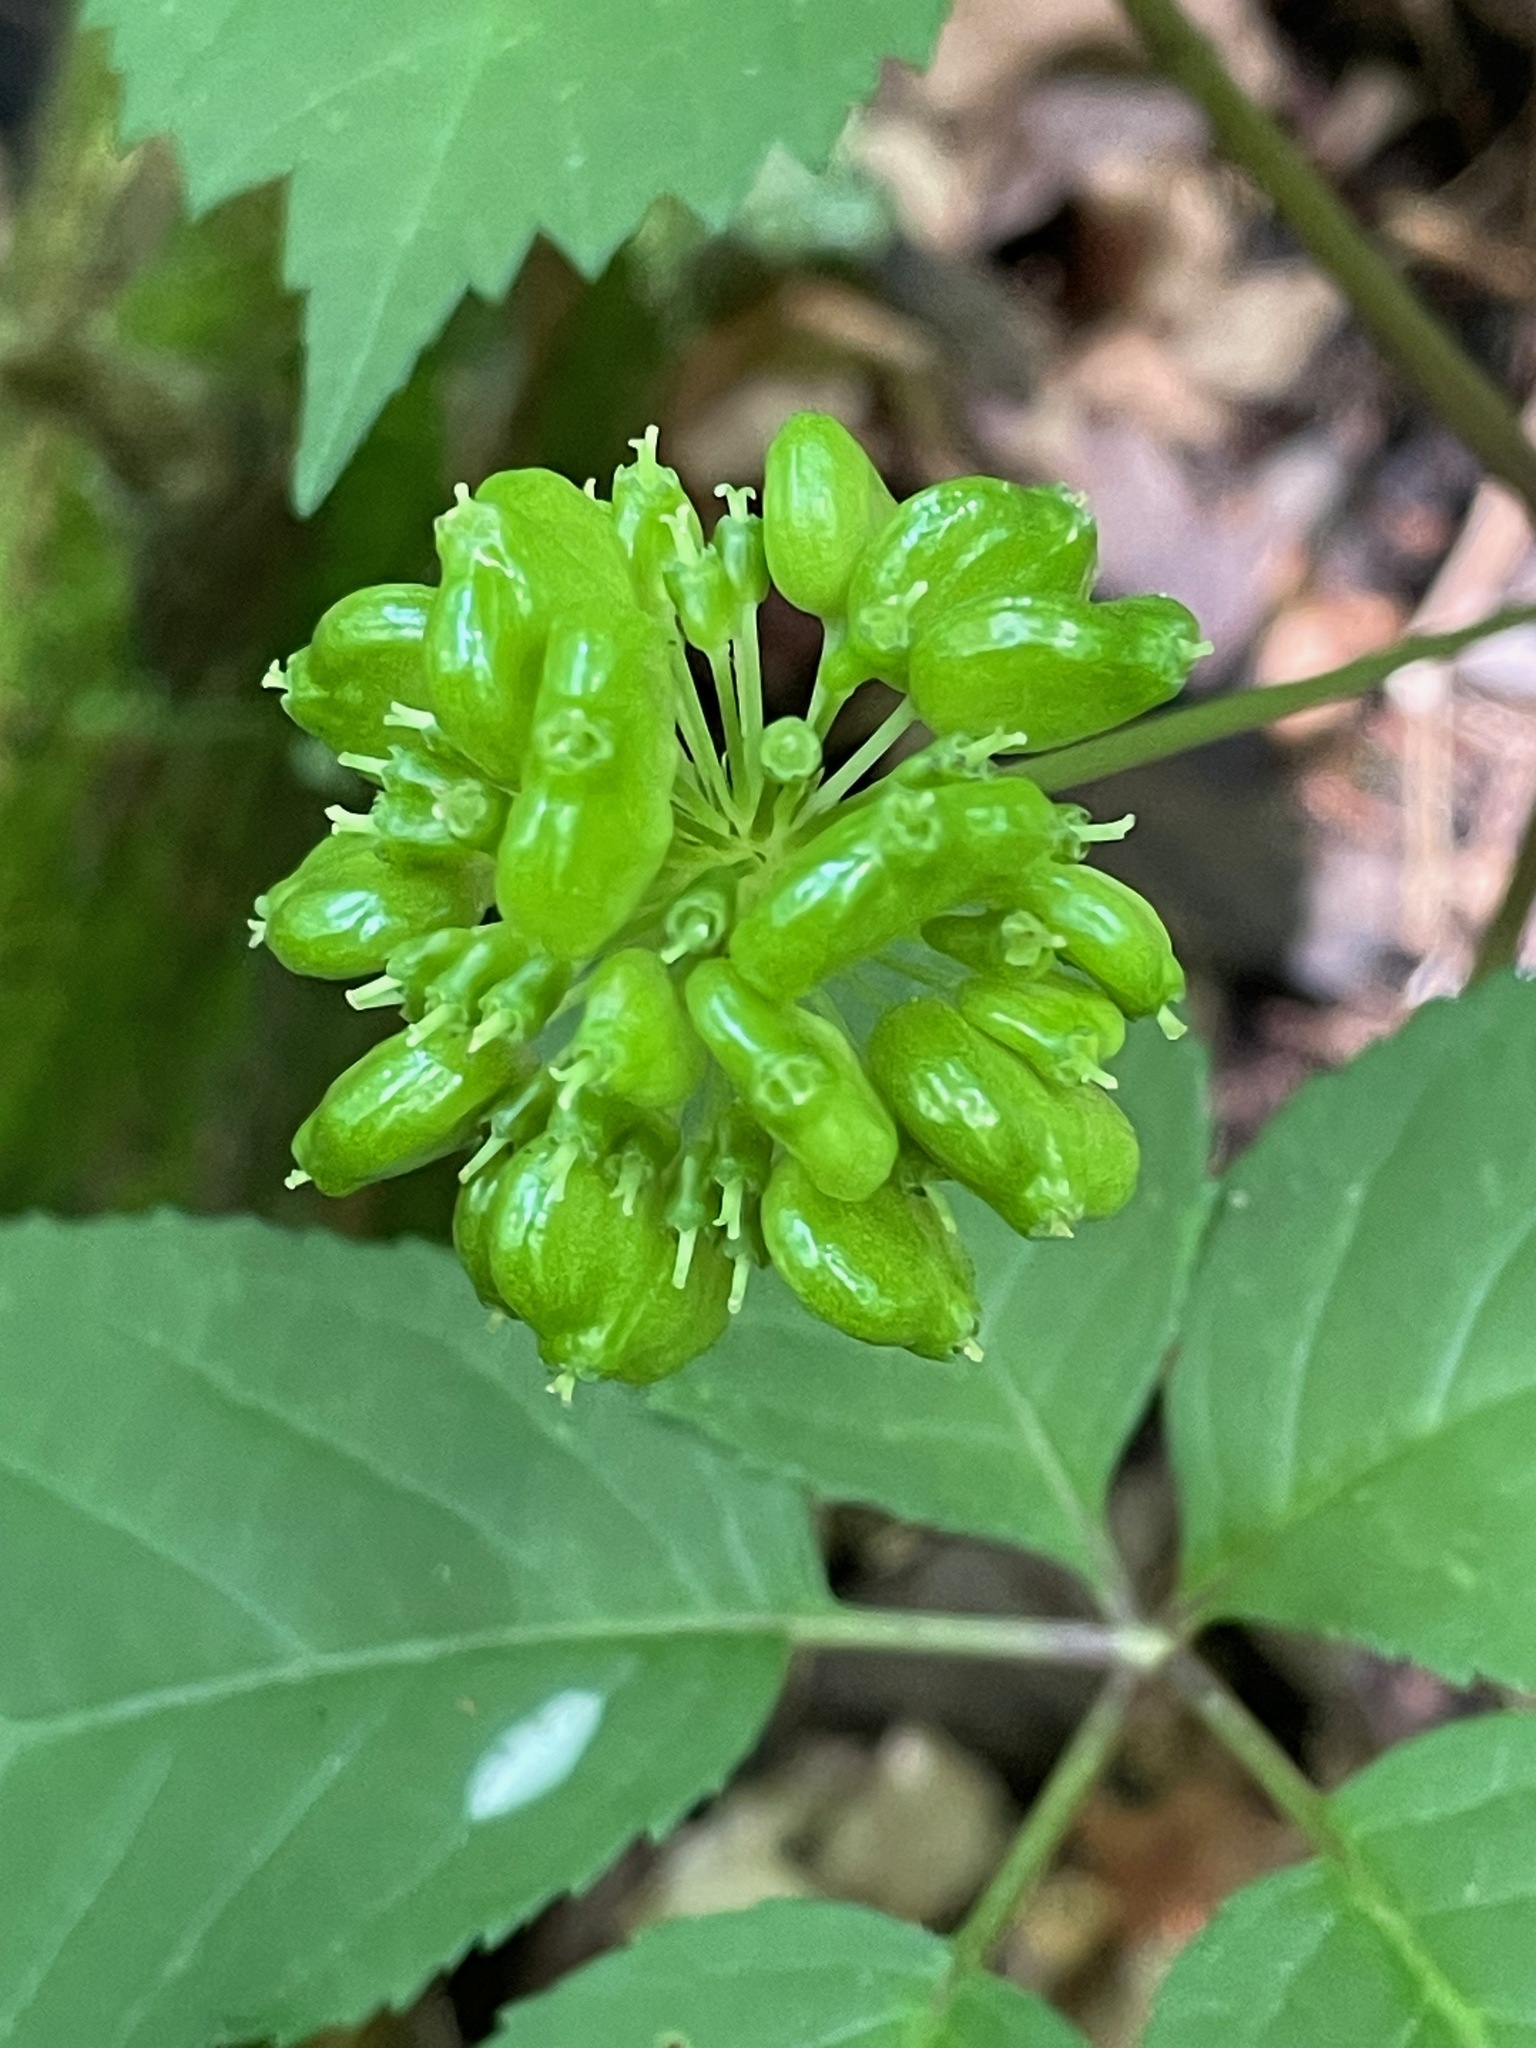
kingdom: Plantae
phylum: Tracheophyta
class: Magnoliopsida
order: Apiales
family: Araliaceae
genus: Panax
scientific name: Panax quinquefolius
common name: American ginseng
